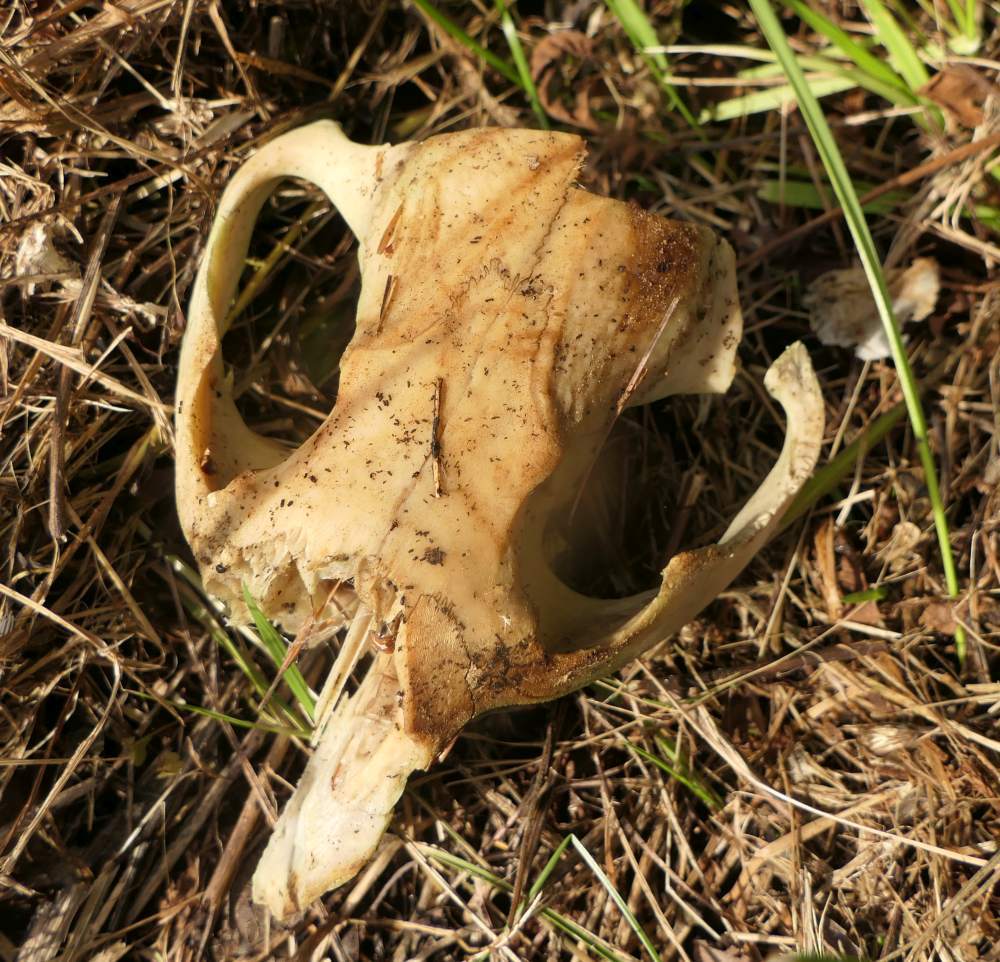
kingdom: Animalia
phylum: Chordata
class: Mammalia
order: Rodentia
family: Castoridae
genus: Castor
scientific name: Castor canadensis
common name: American beaver
